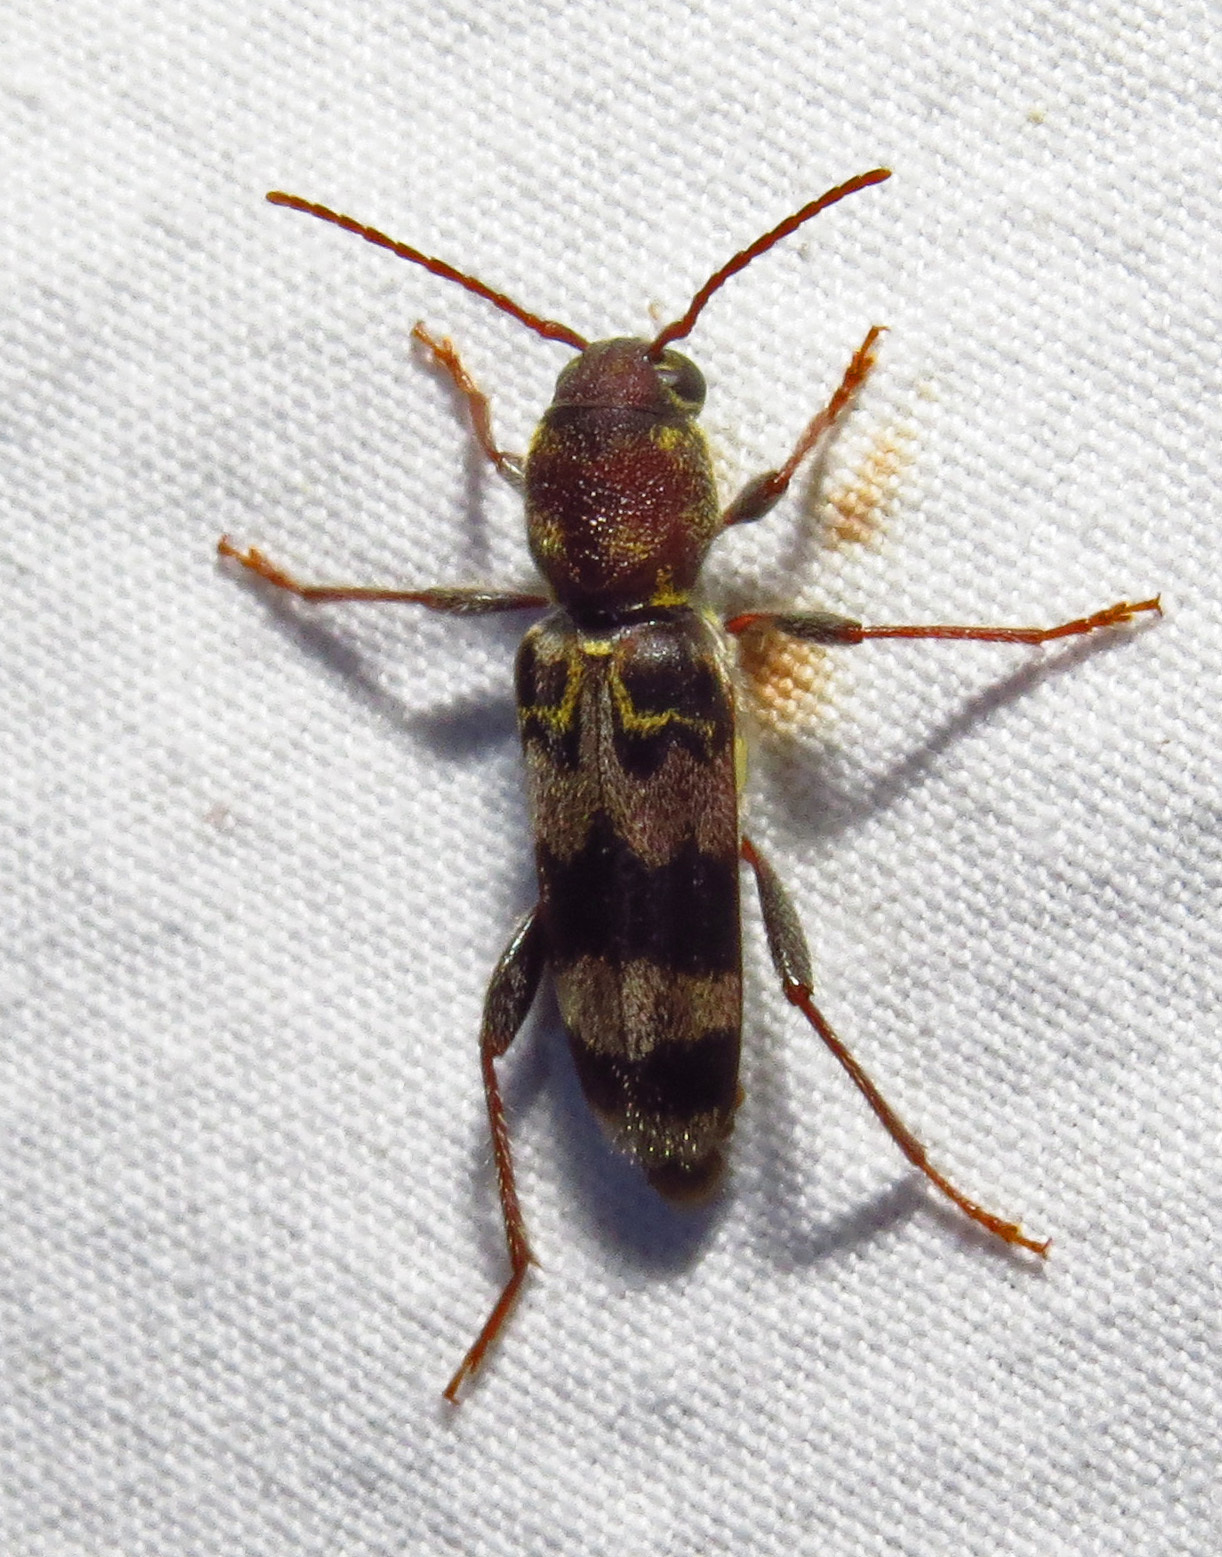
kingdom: Animalia
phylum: Arthropoda
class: Insecta
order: Coleoptera
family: Cerambycidae
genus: Xylotrechus
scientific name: Xylotrechus colonus
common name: Long-horned beetle
